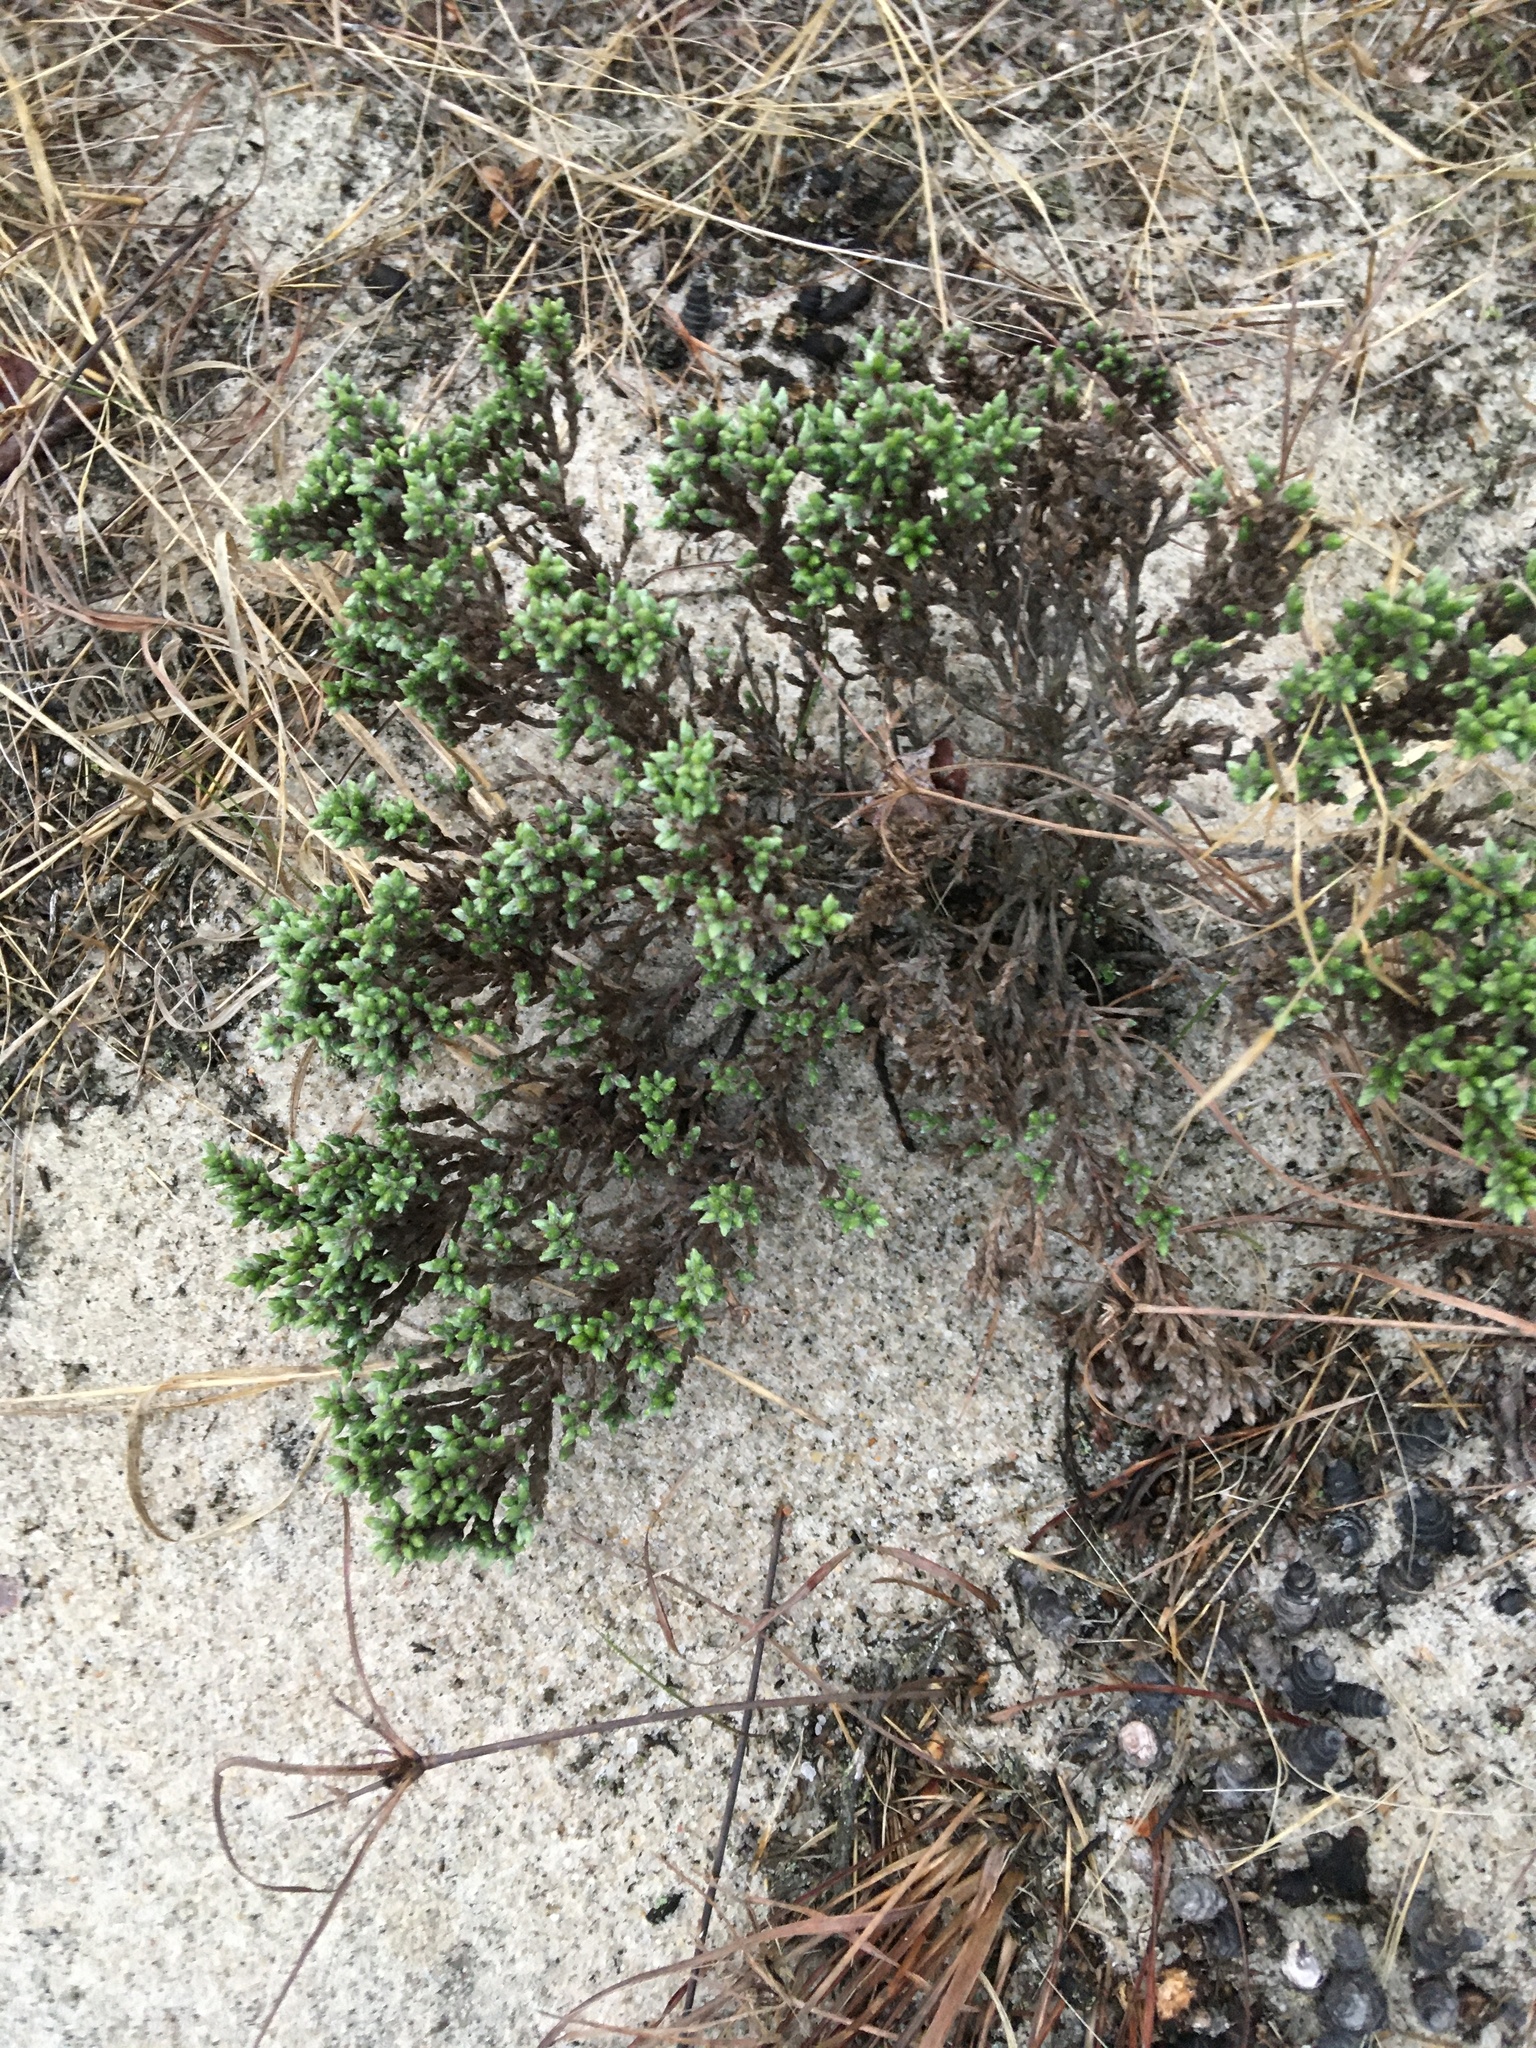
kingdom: Plantae
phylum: Tracheophyta
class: Magnoliopsida
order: Malvales
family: Cistaceae
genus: Hudsonia
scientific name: Hudsonia tomentosa
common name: Beach-heath
